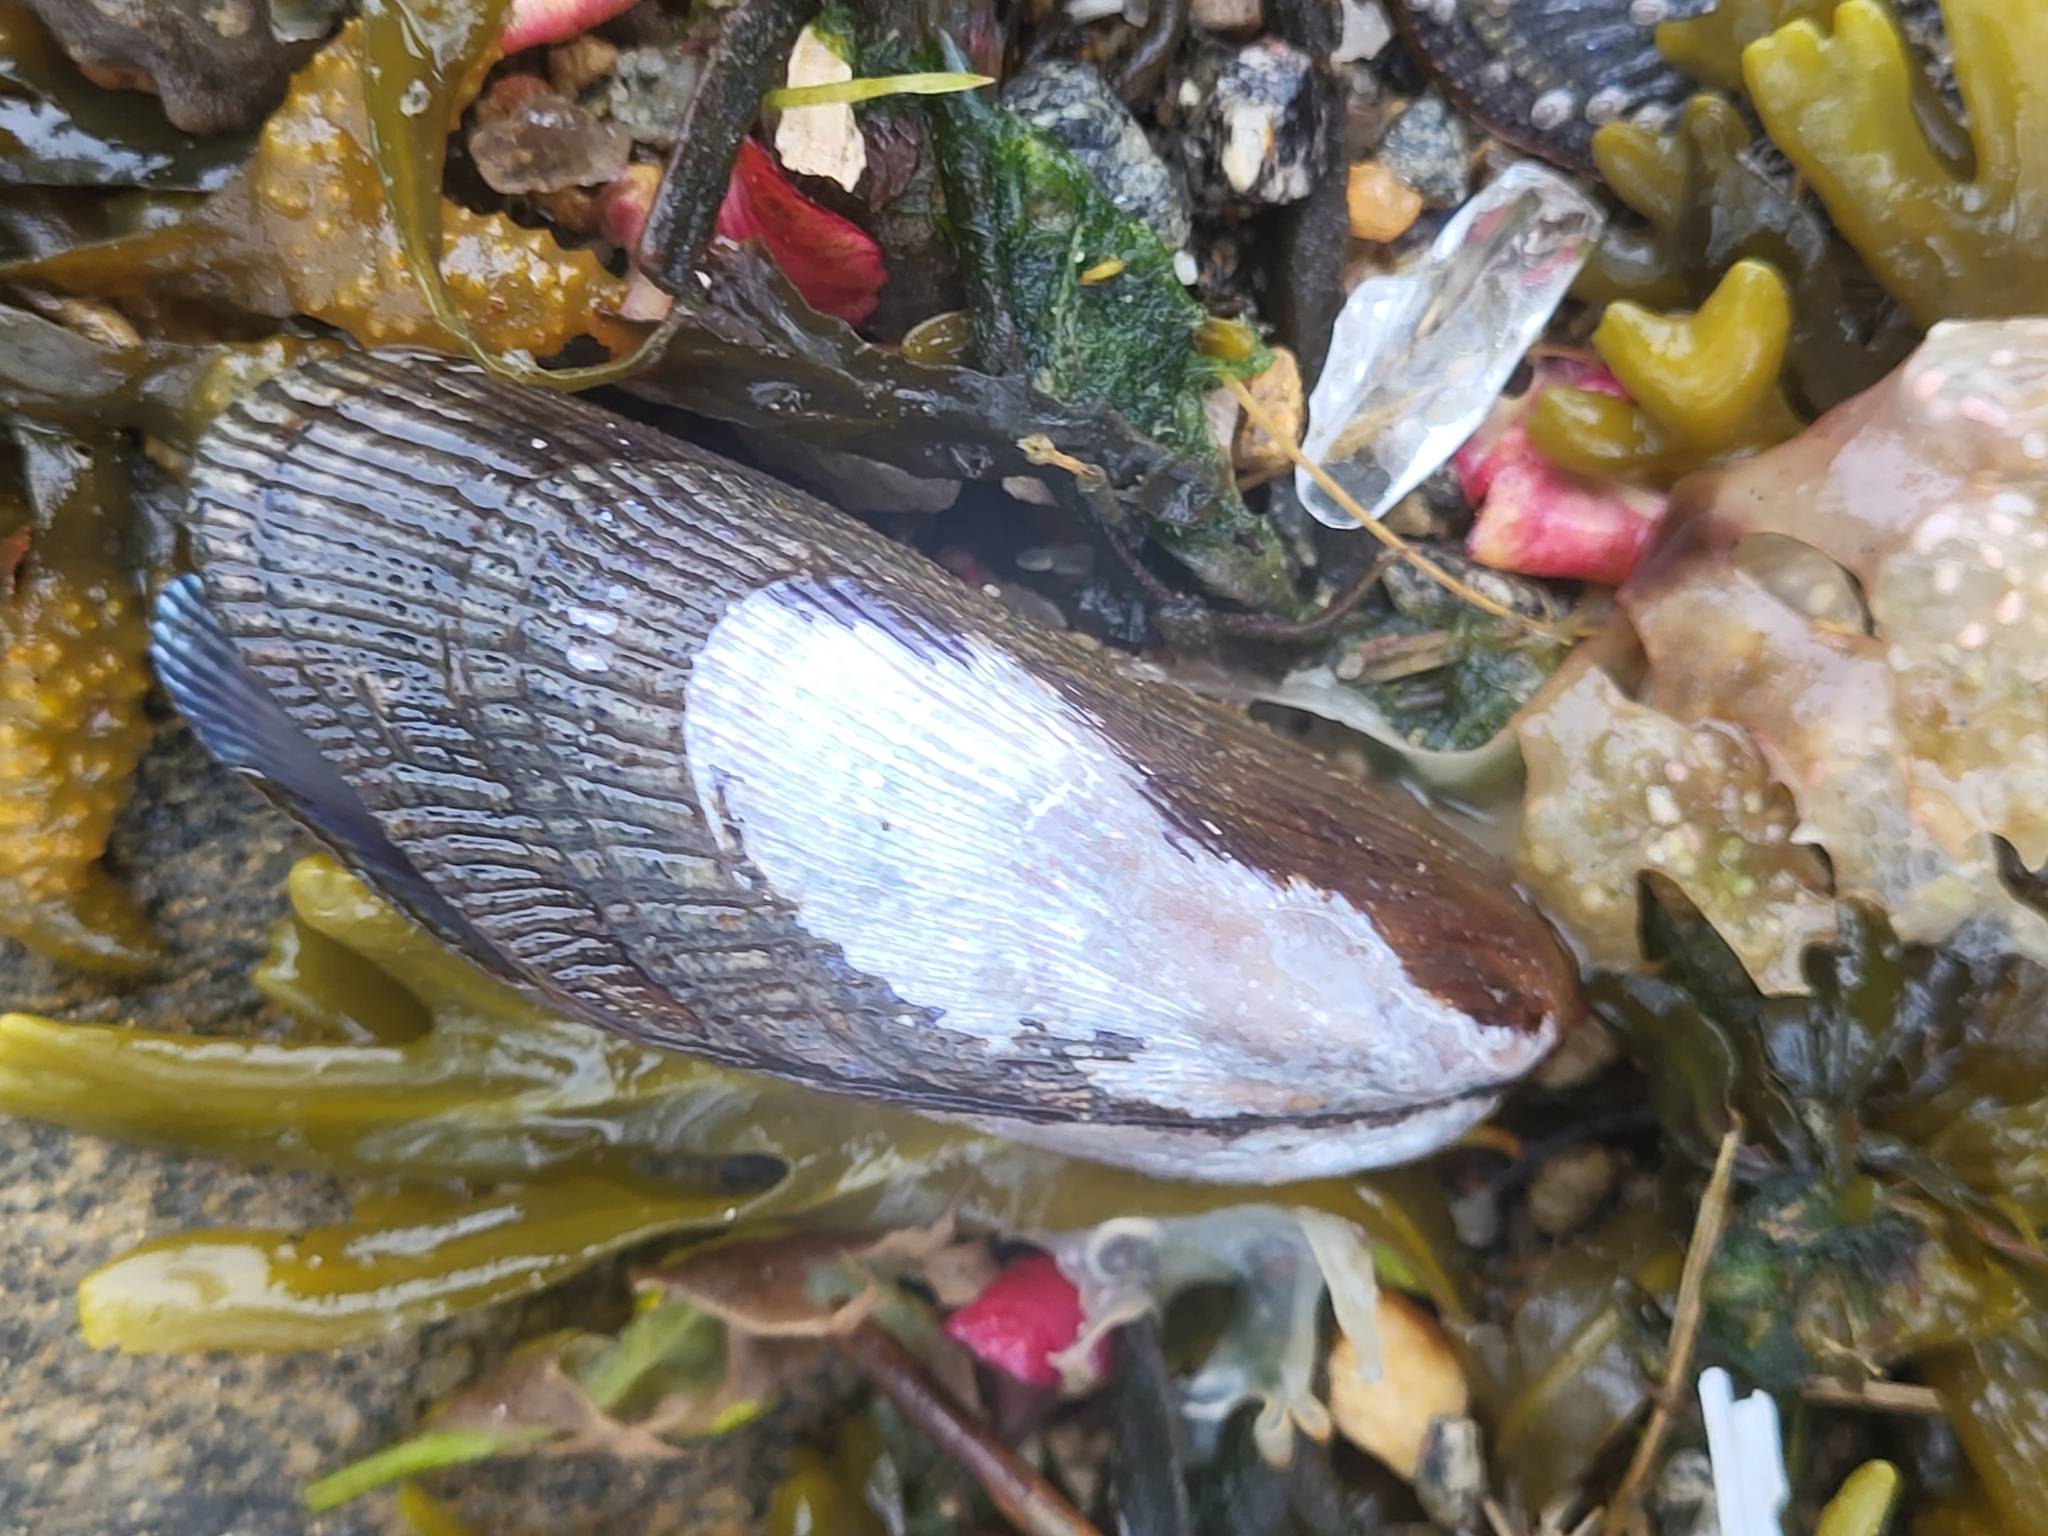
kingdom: Animalia
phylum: Mollusca
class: Bivalvia
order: Mytilida
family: Mytilidae
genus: Geukensia
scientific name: Geukensia demissa
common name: Ribbed mussel
